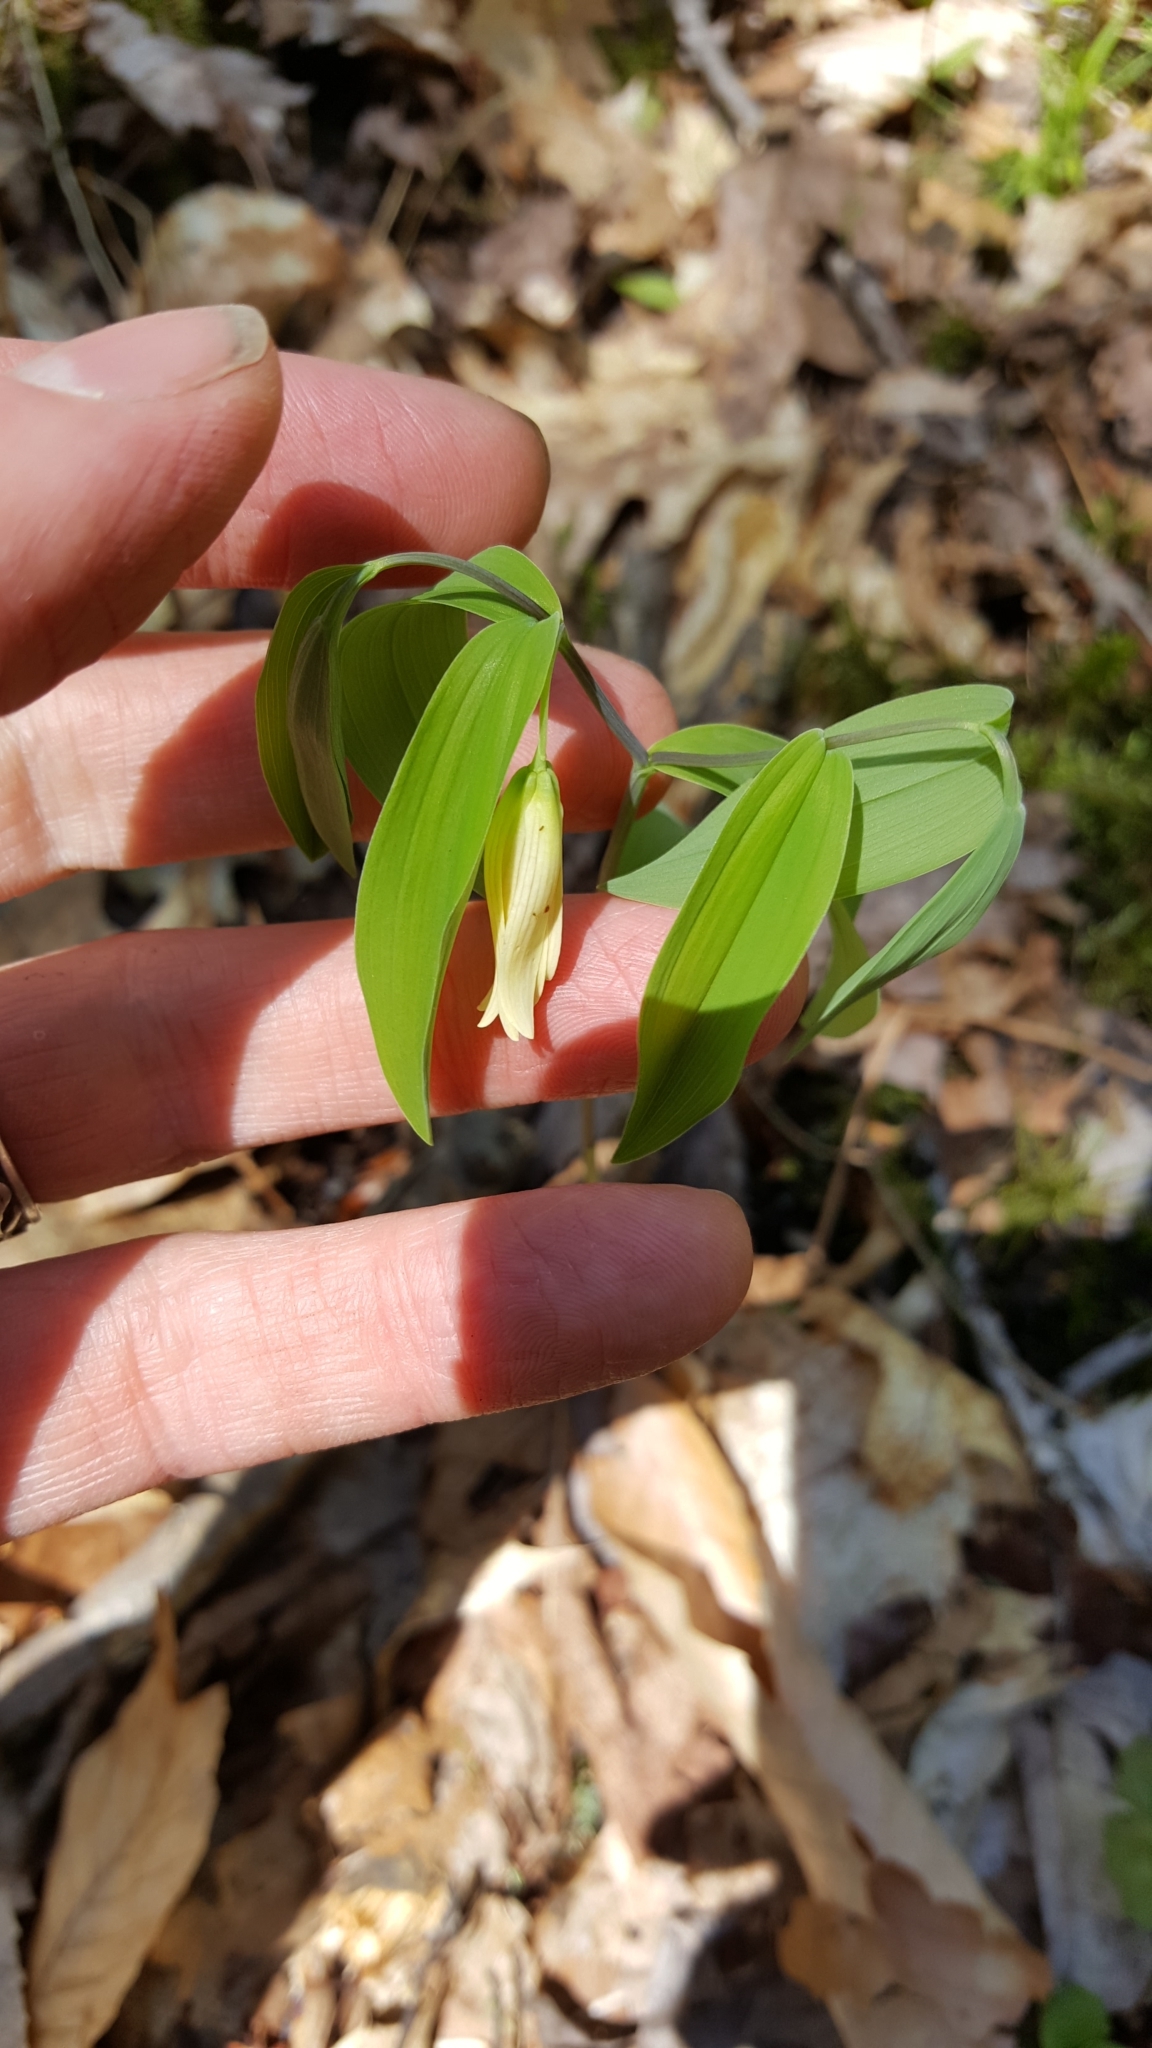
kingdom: Plantae
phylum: Tracheophyta
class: Liliopsida
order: Liliales
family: Colchicaceae
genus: Uvularia
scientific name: Uvularia sessilifolia
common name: Straw-lily
